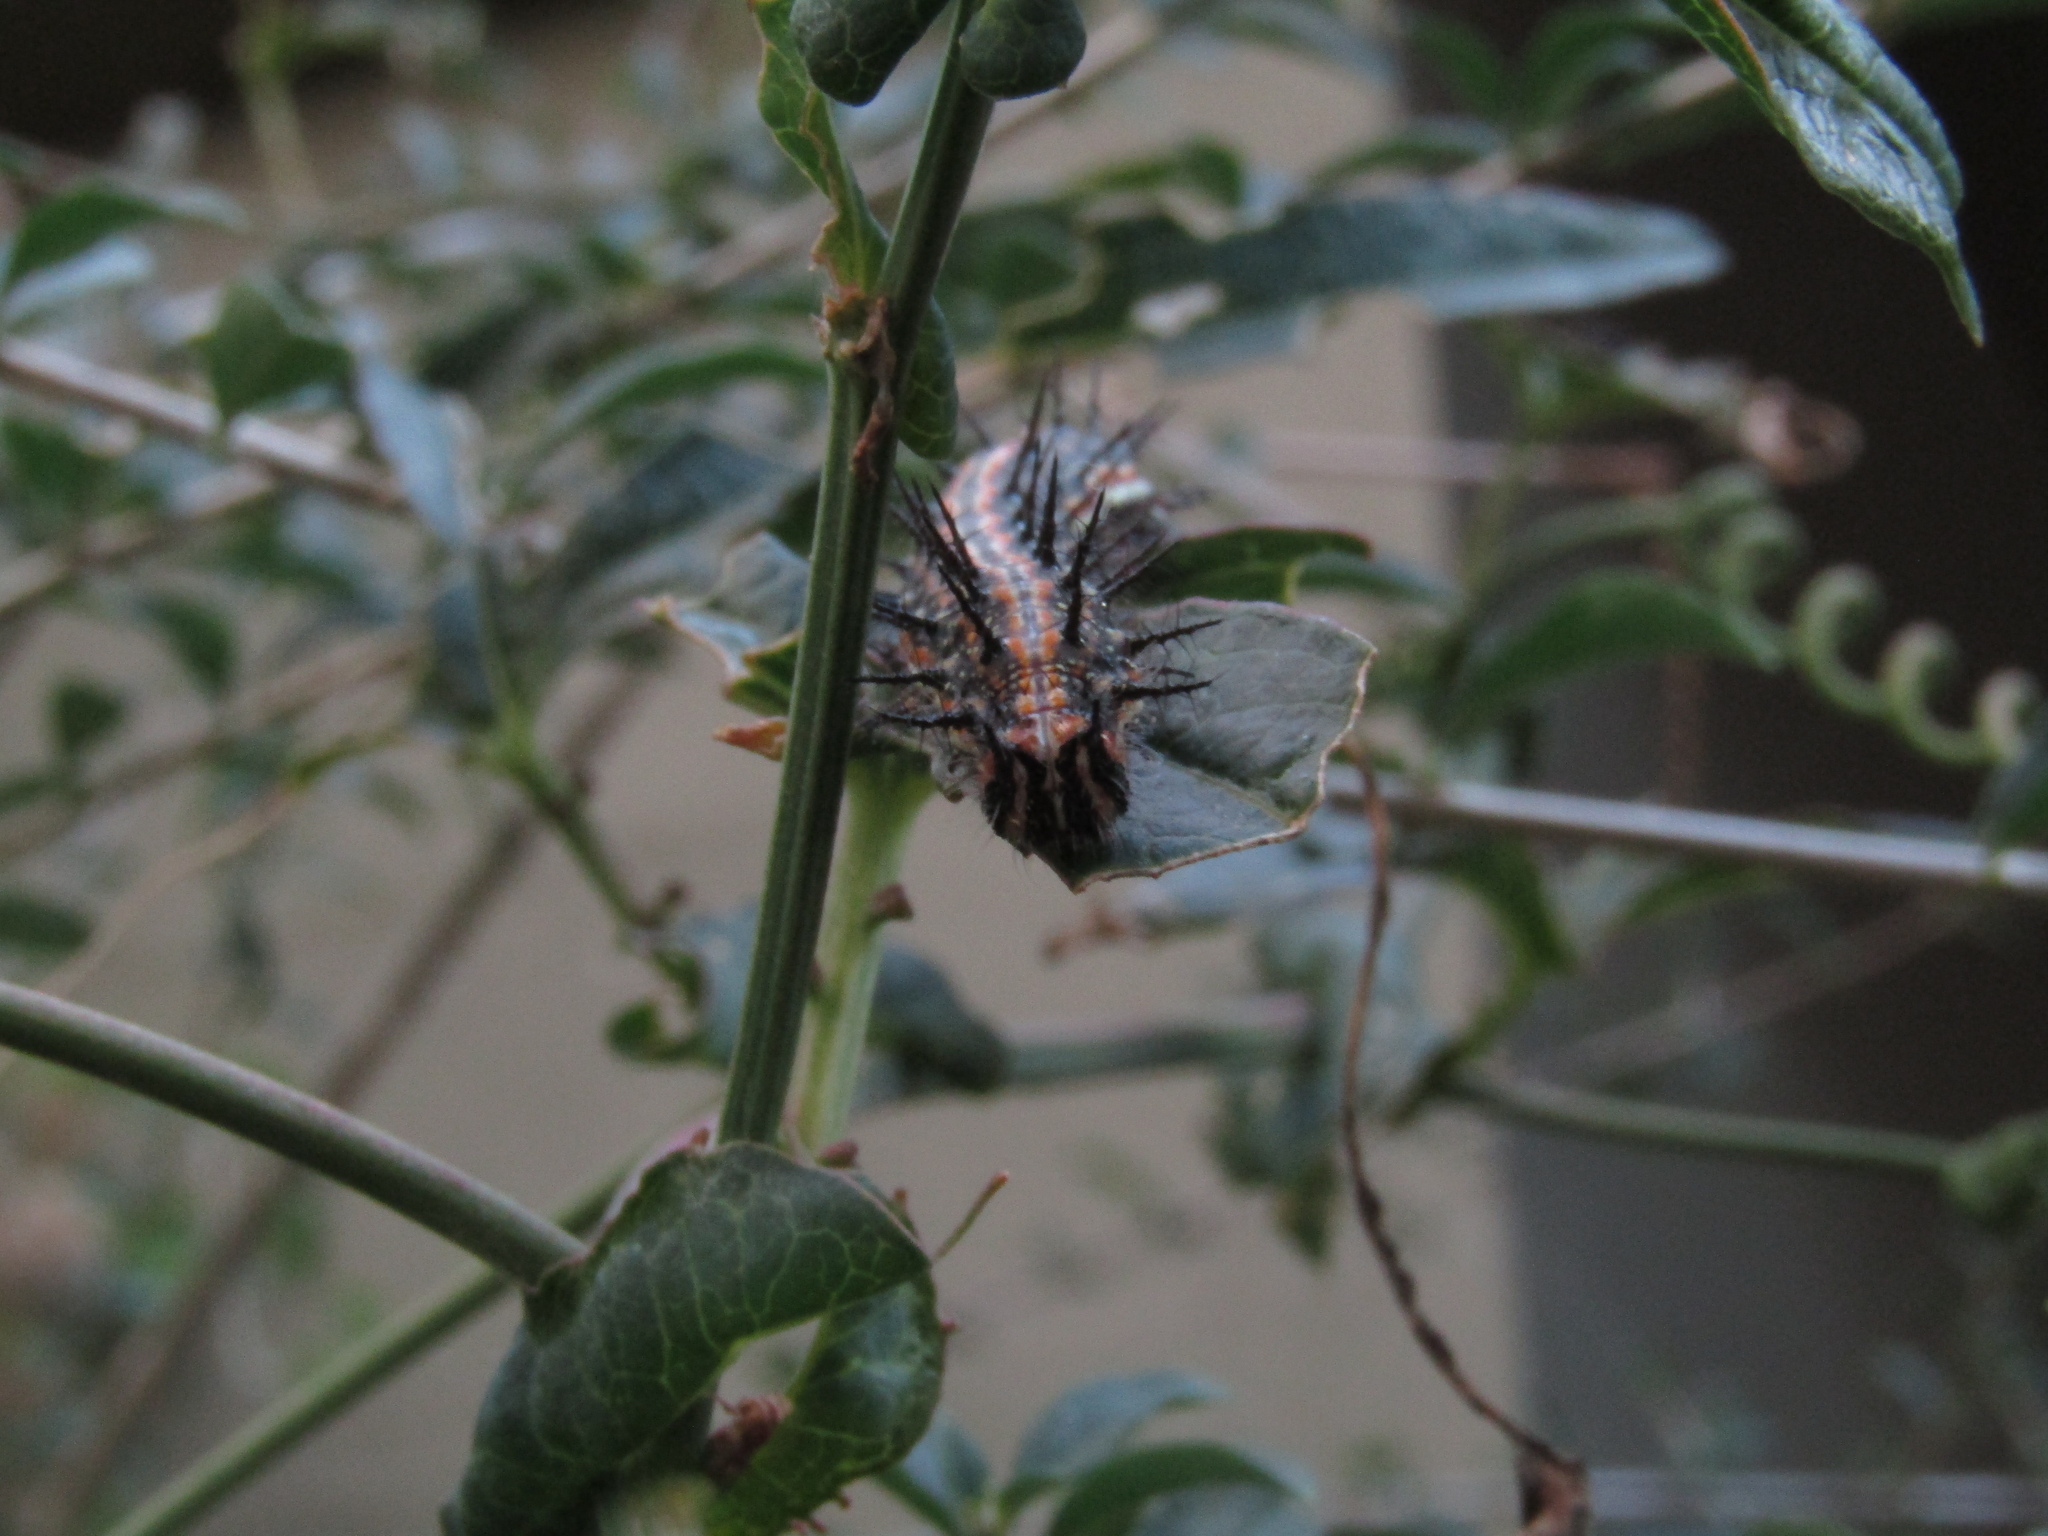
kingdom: Animalia
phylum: Arthropoda
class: Insecta
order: Lepidoptera
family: Nymphalidae
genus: Dione
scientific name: Dione vanillae
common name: Gulf fritillary
